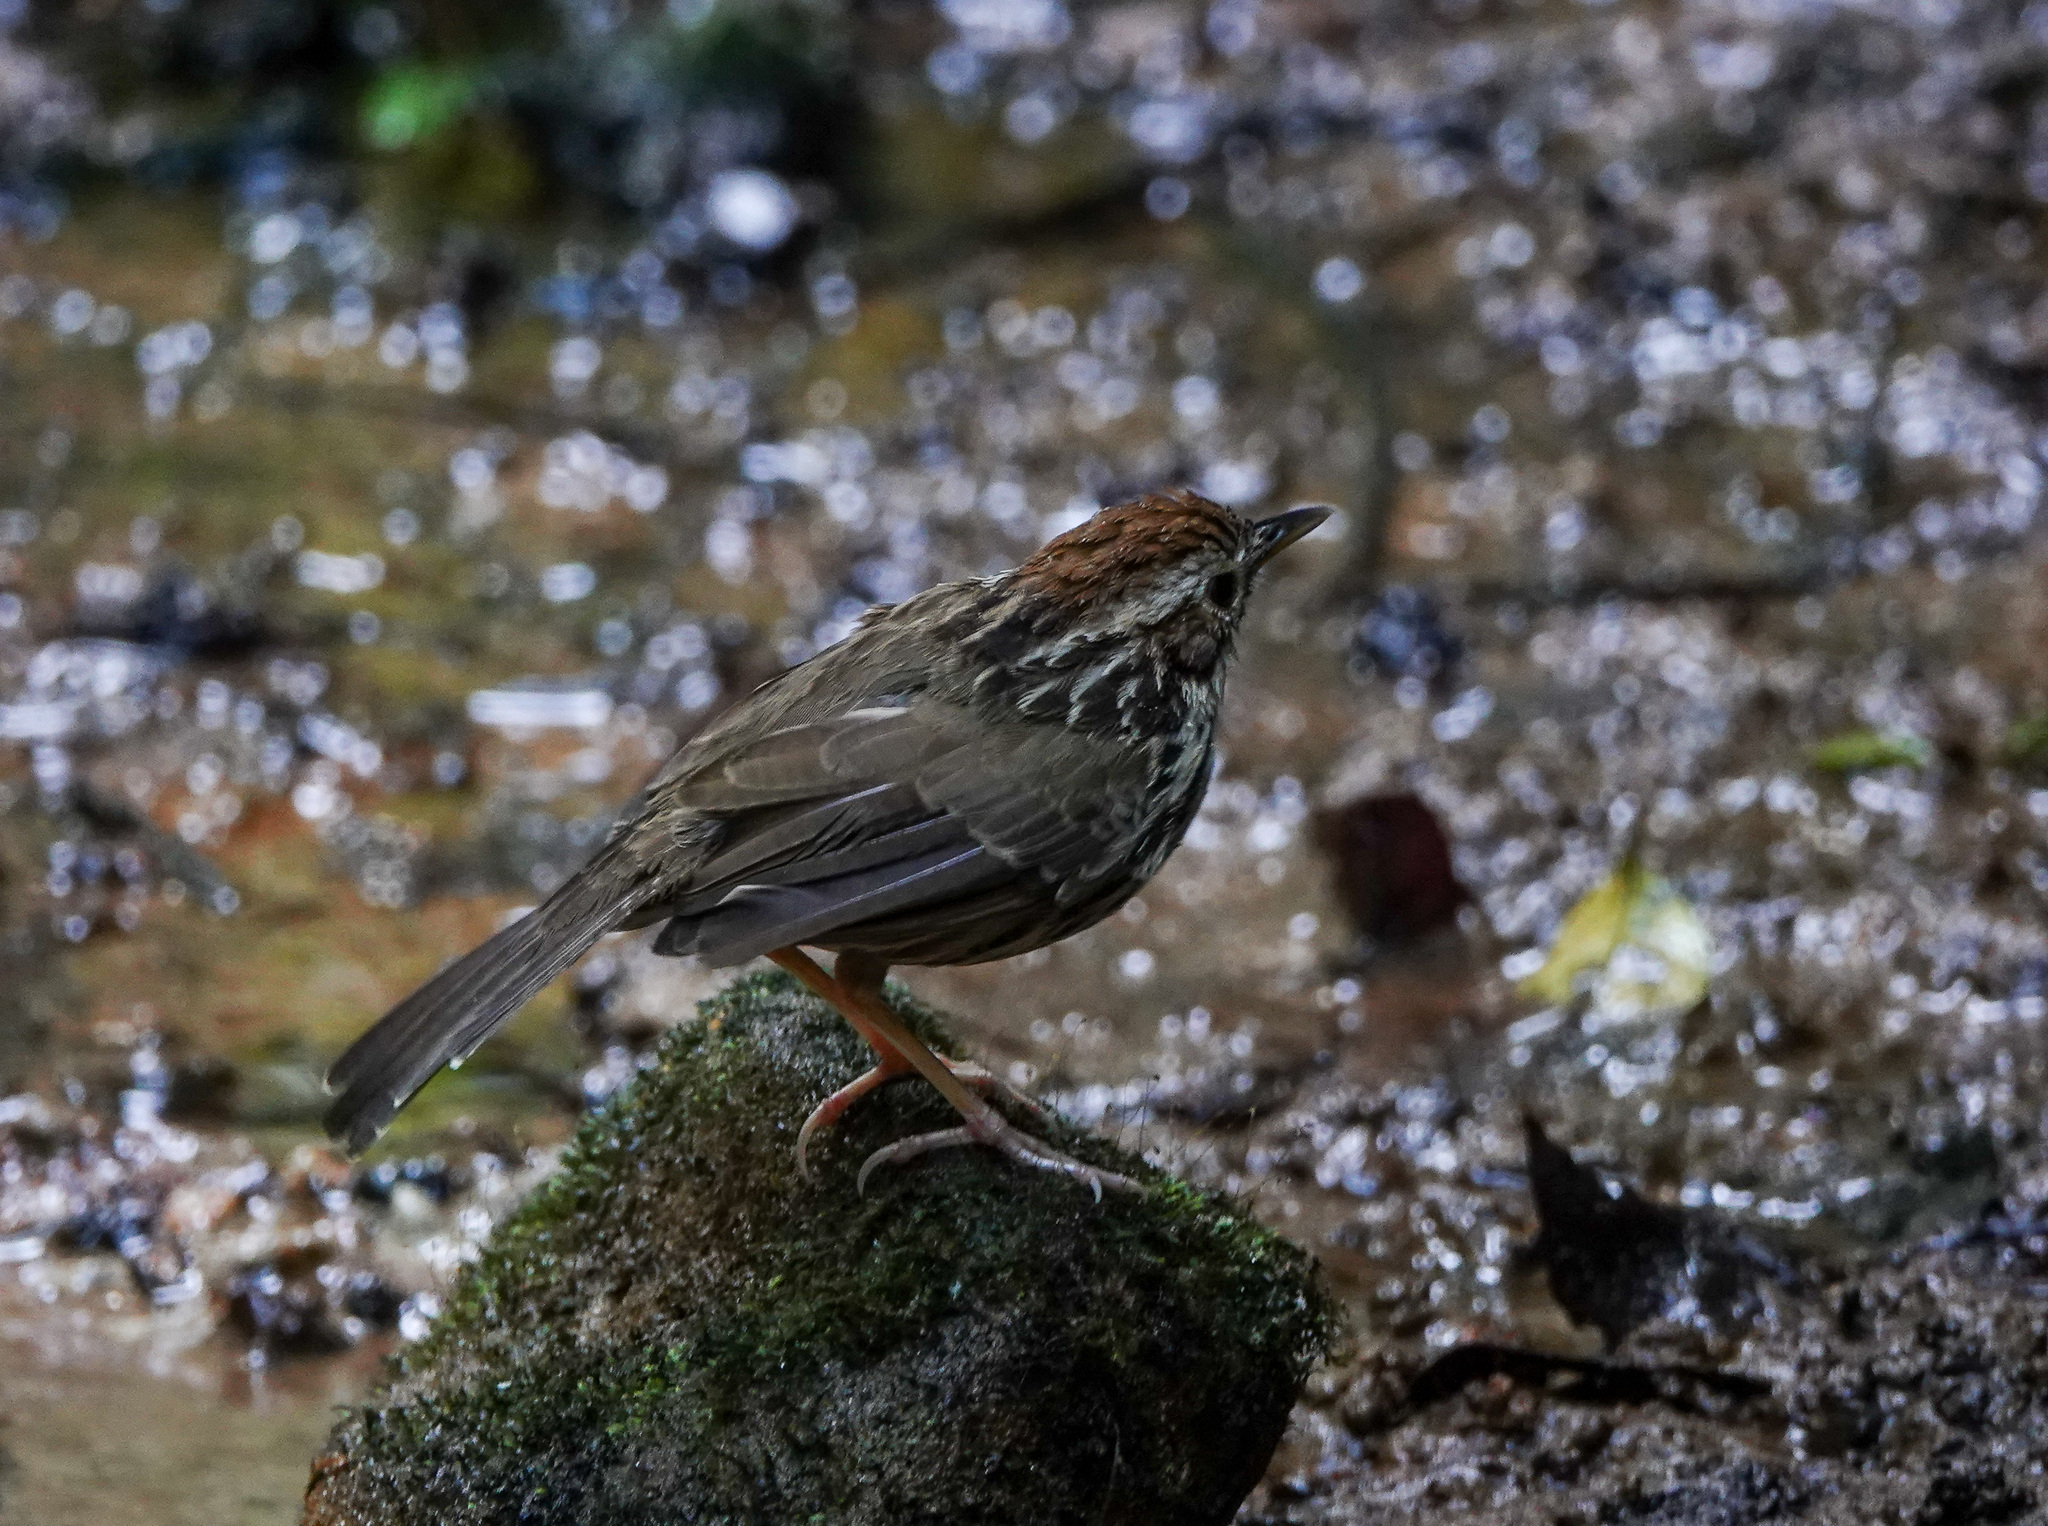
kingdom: Animalia
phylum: Chordata
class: Aves
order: Passeriformes
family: Pellorneidae
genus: Pellorneum
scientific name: Pellorneum ruficeps
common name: Puff-throated babbler
